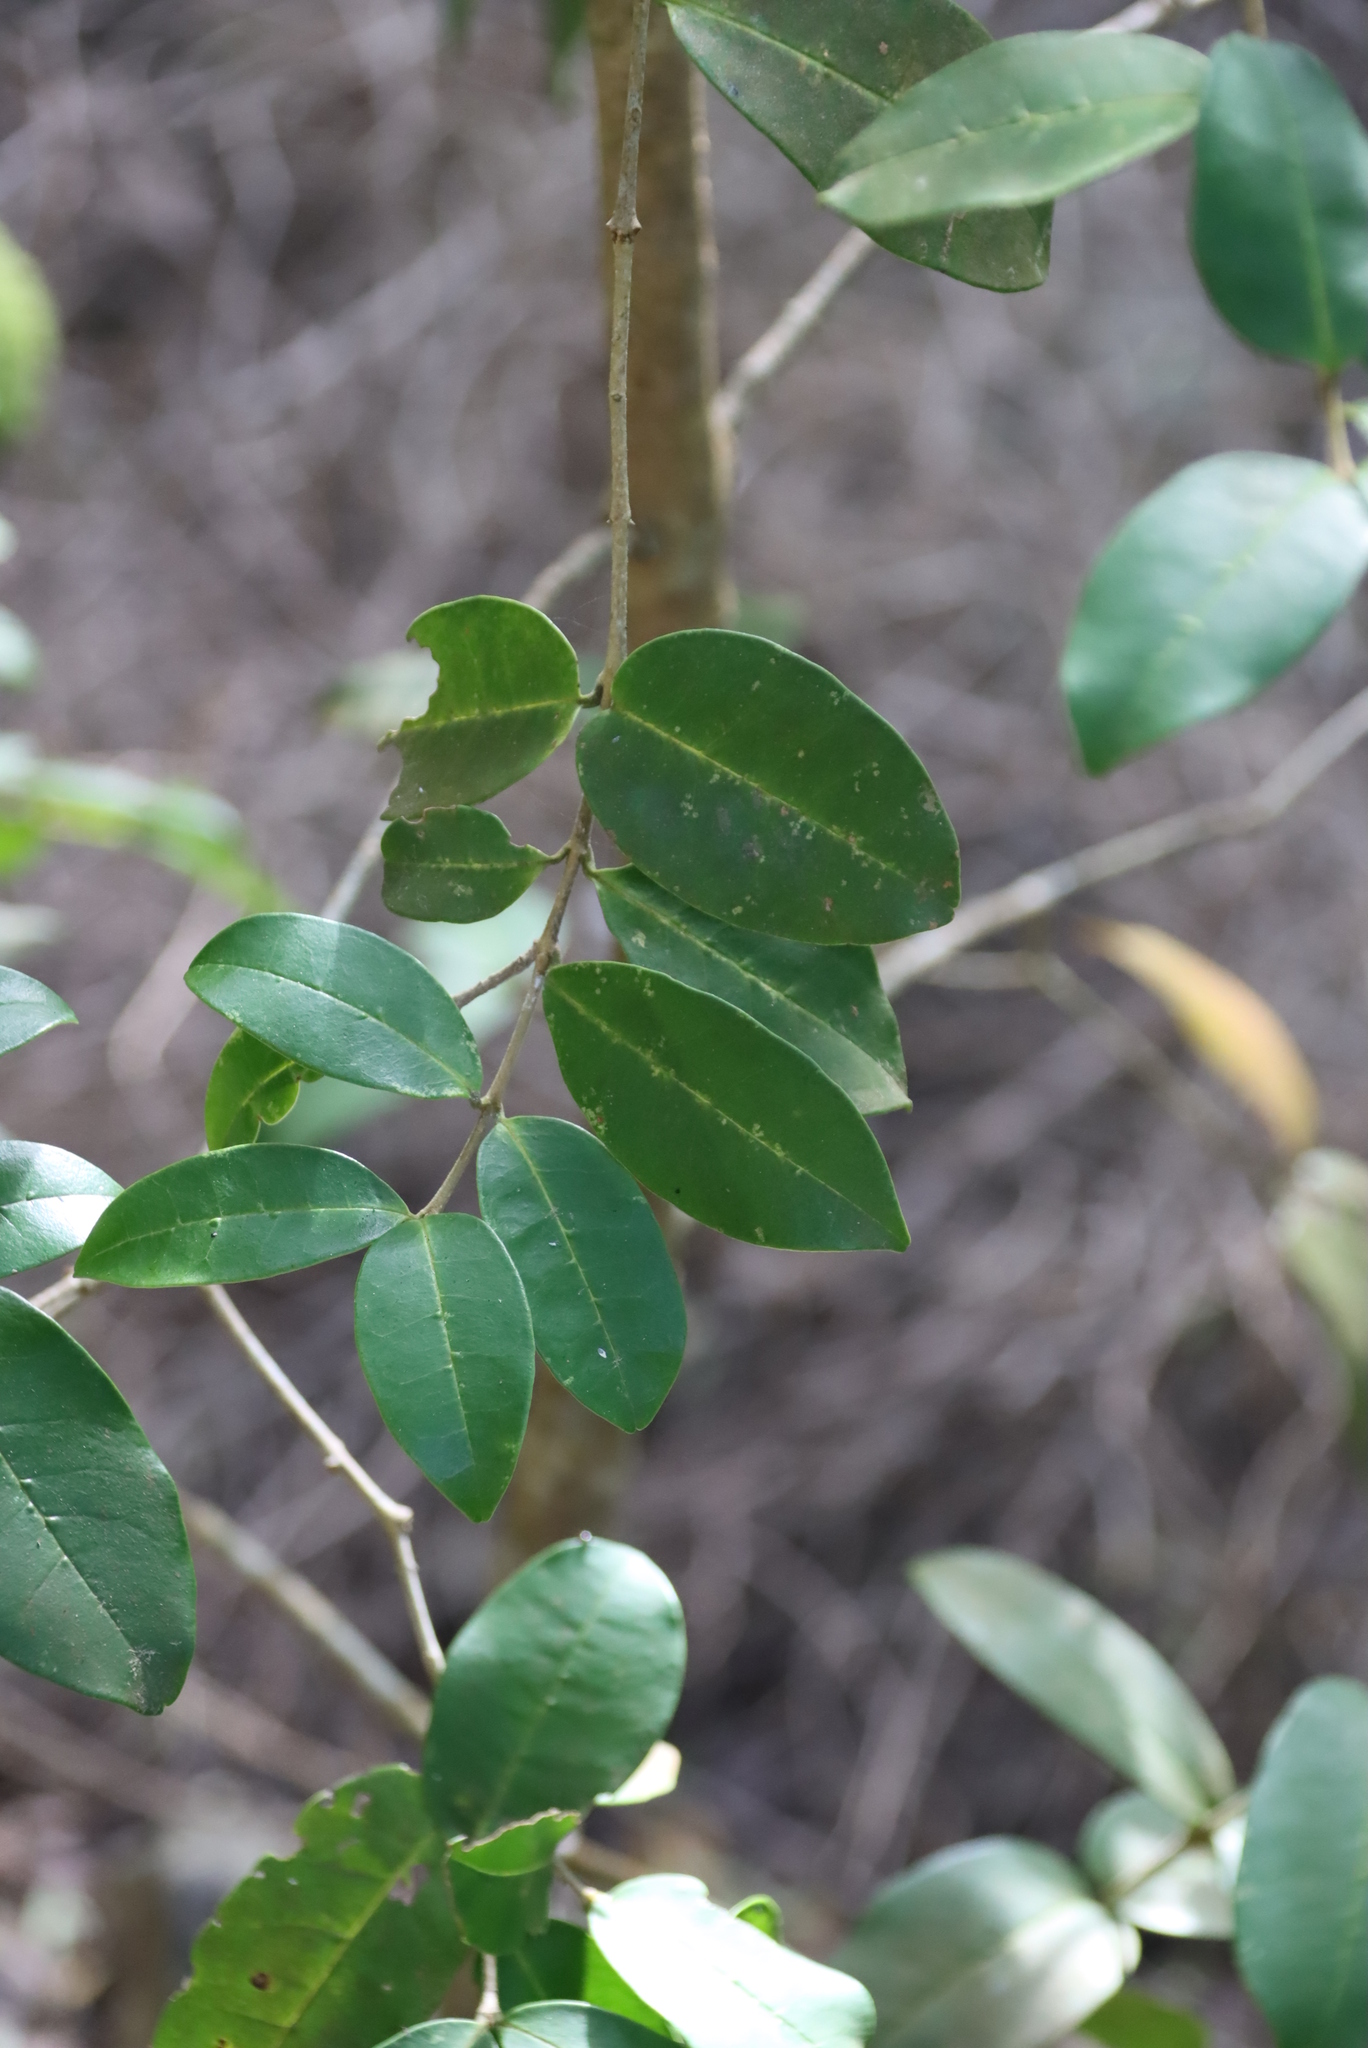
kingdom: Plantae
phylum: Tracheophyta
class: Magnoliopsida
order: Lamiales
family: Oleaceae
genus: Noronhia
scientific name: Noronhia foveolata
